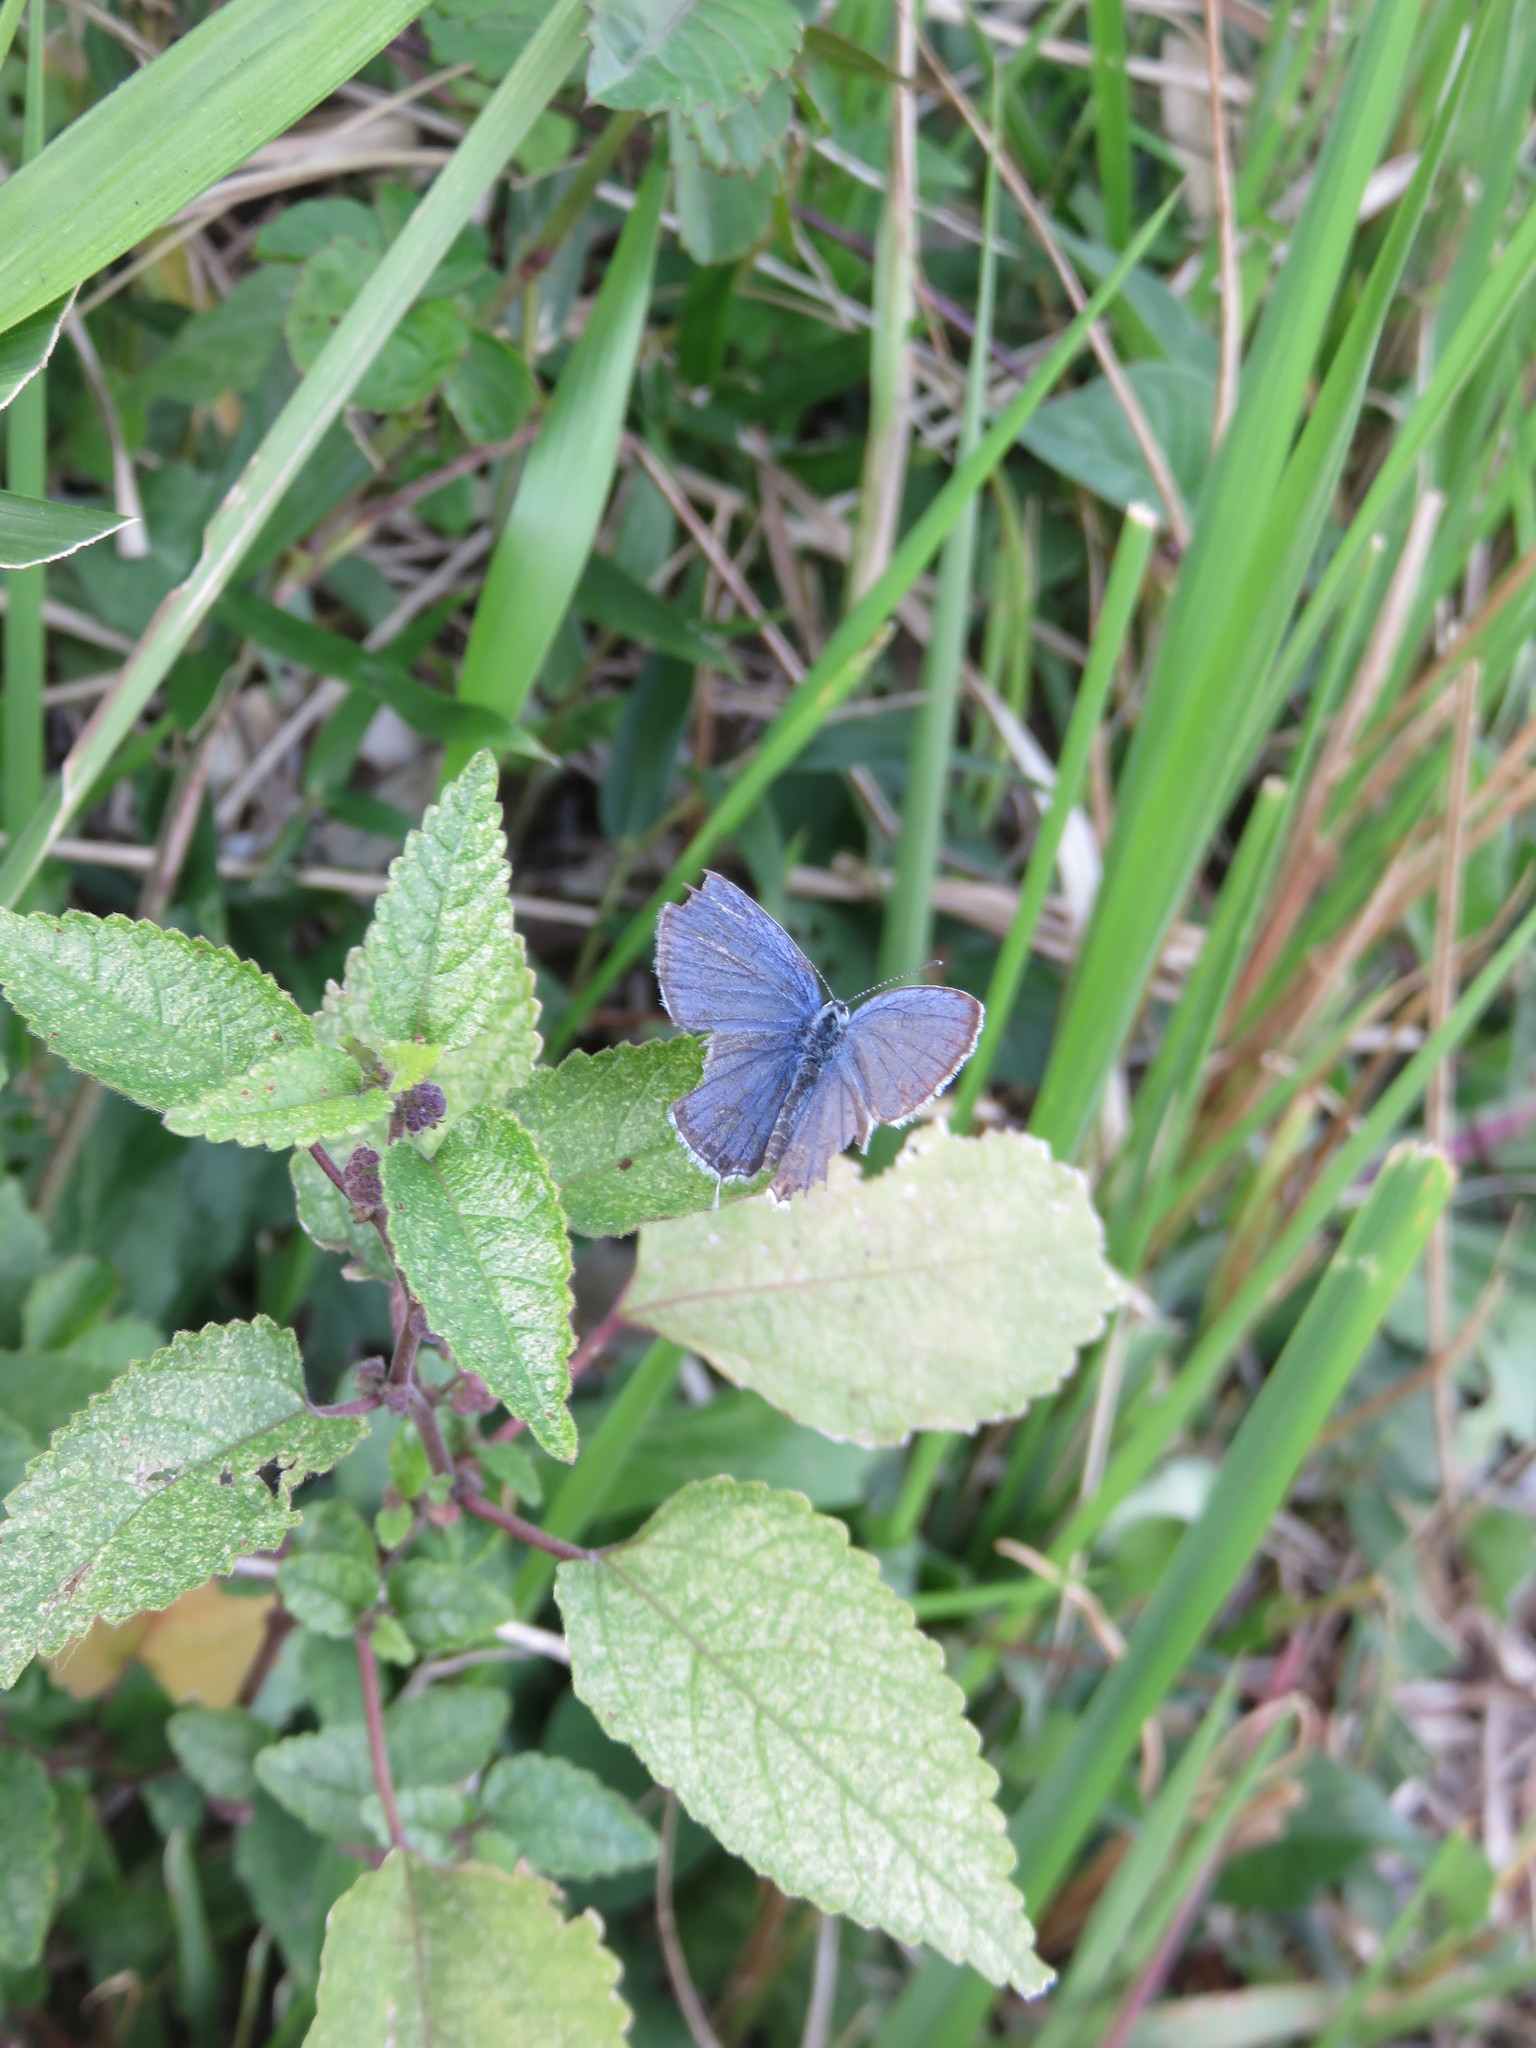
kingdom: Animalia
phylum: Arthropoda
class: Insecta
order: Lepidoptera
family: Lycaenidae
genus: Elkalyce
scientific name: Elkalyce argiades
